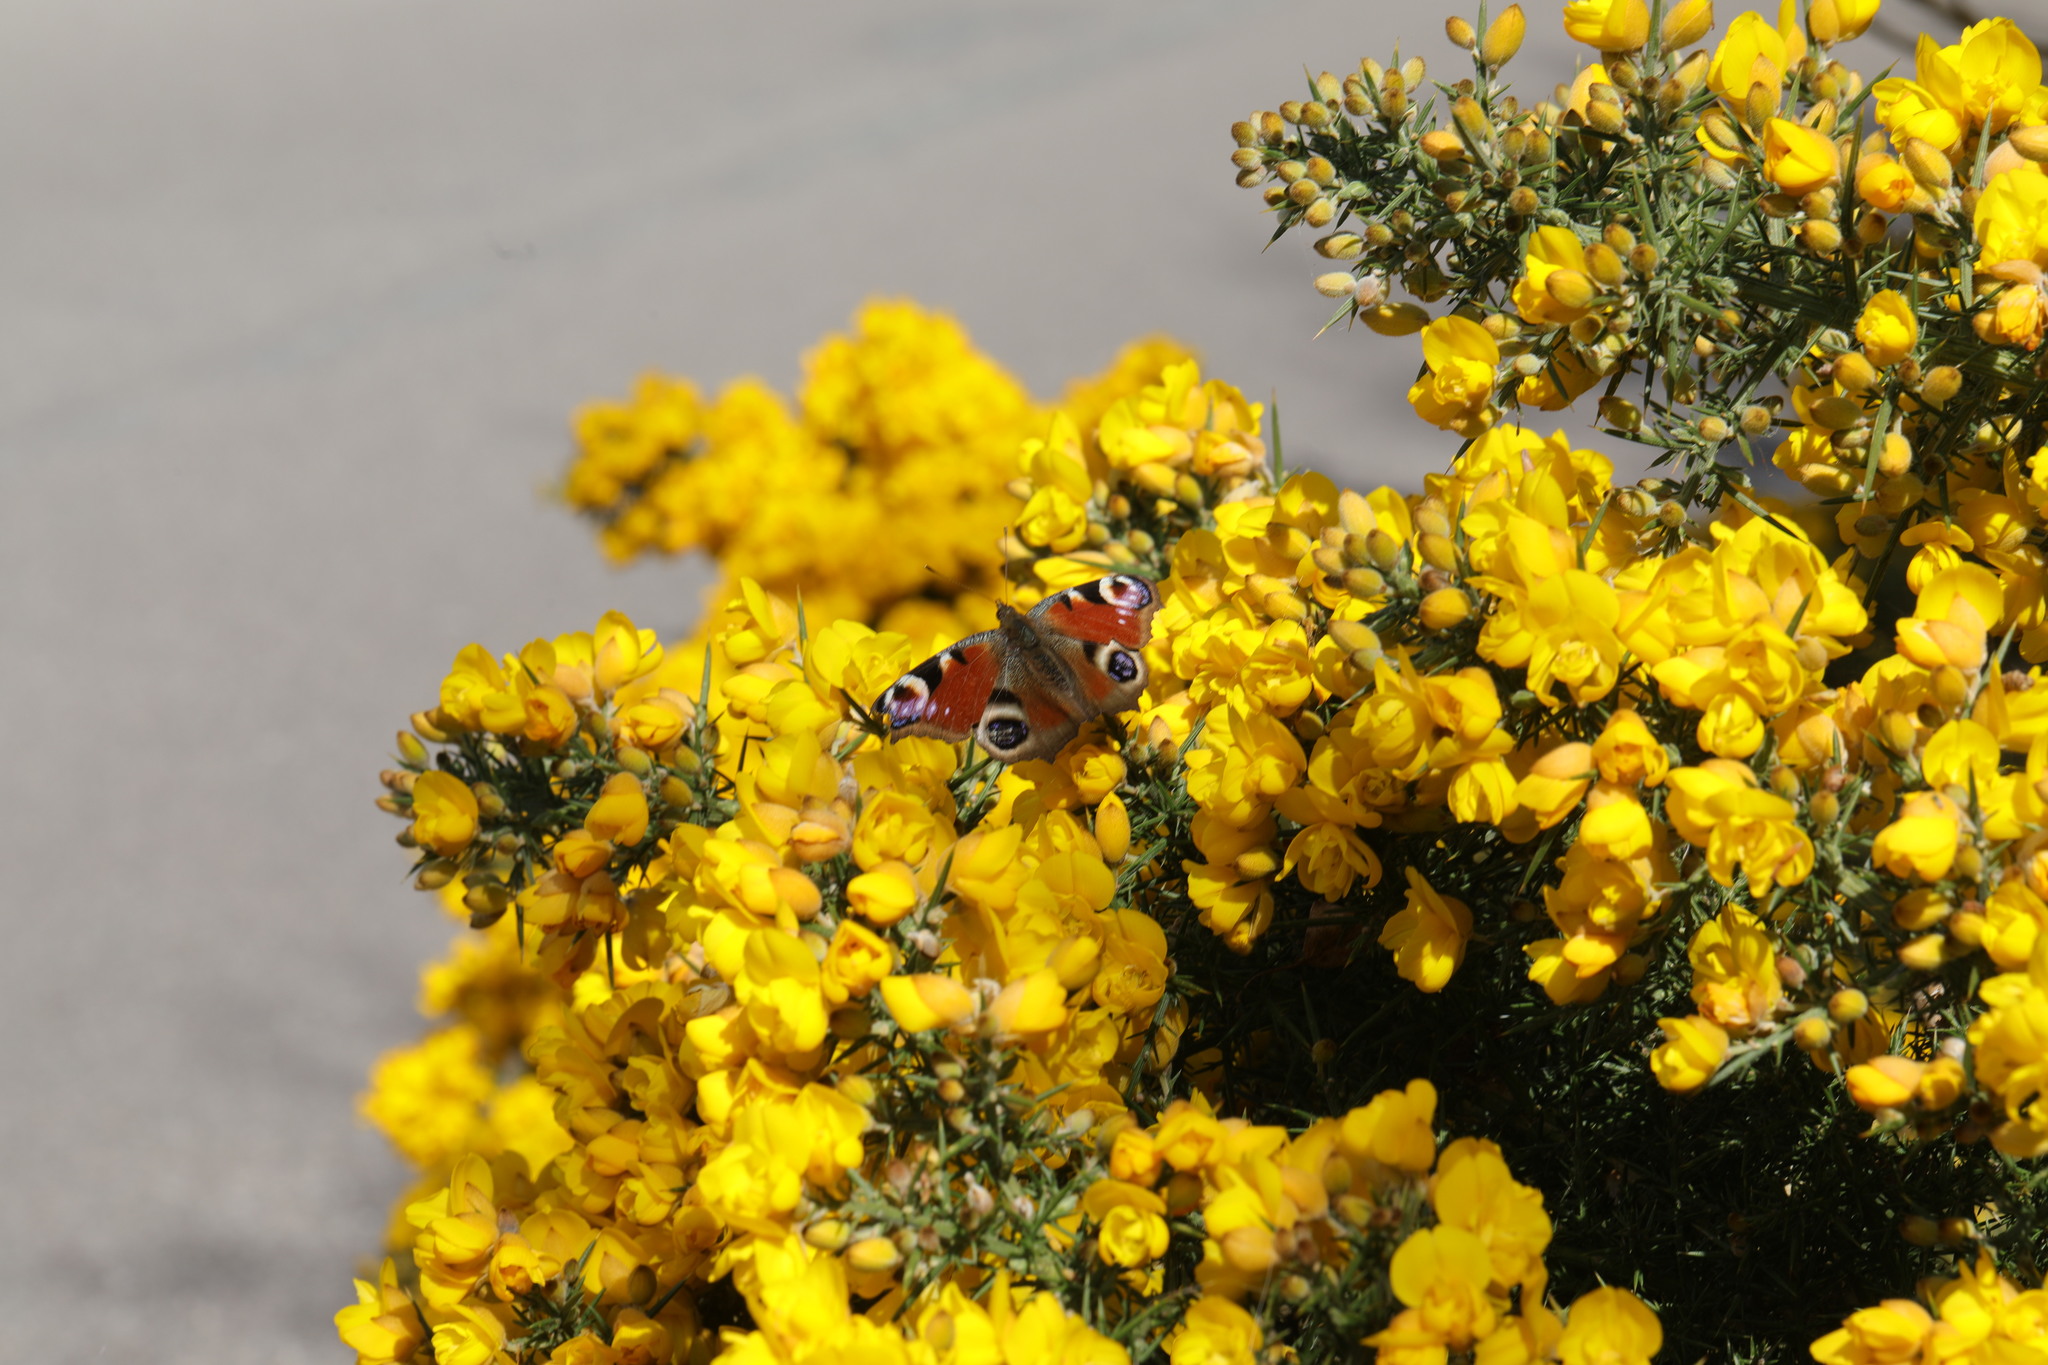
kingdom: Animalia
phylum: Arthropoda
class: Insecta
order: Lepidoptera
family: Nymphalidae
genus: Aglais
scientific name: Aglais io
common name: Peacock
